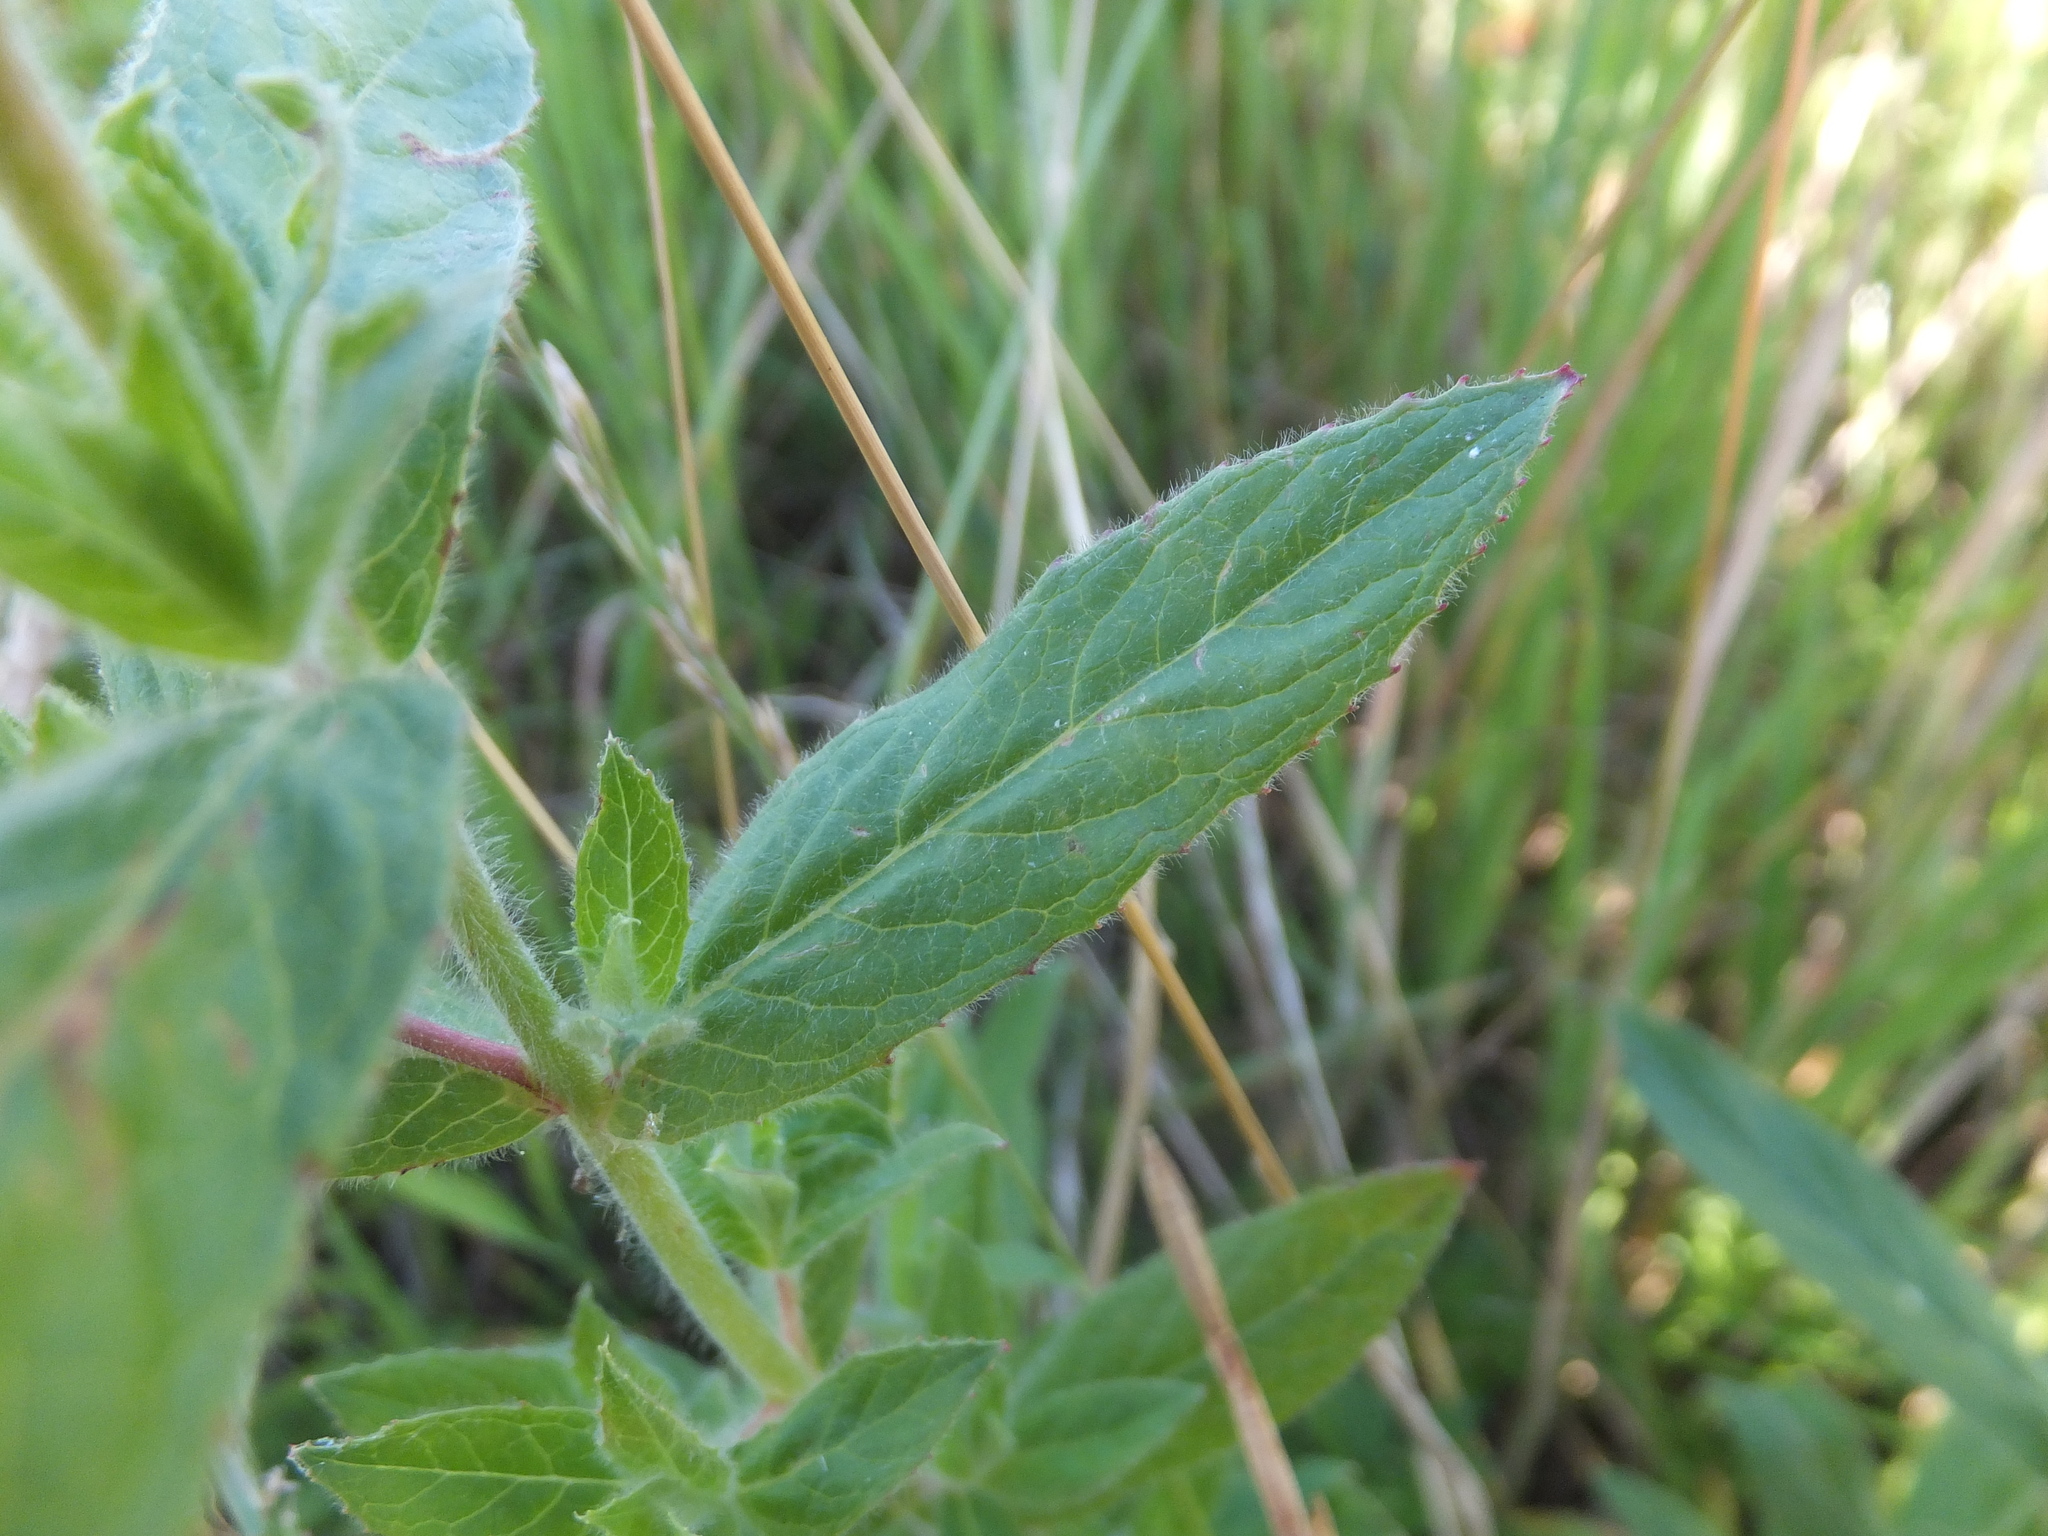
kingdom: Plantae
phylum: Tracheophyta
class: Magnoliopsida
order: Myrtales
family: Onagraceae
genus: Epilobium
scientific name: Epilobium hirsutum
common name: Great willowherb
